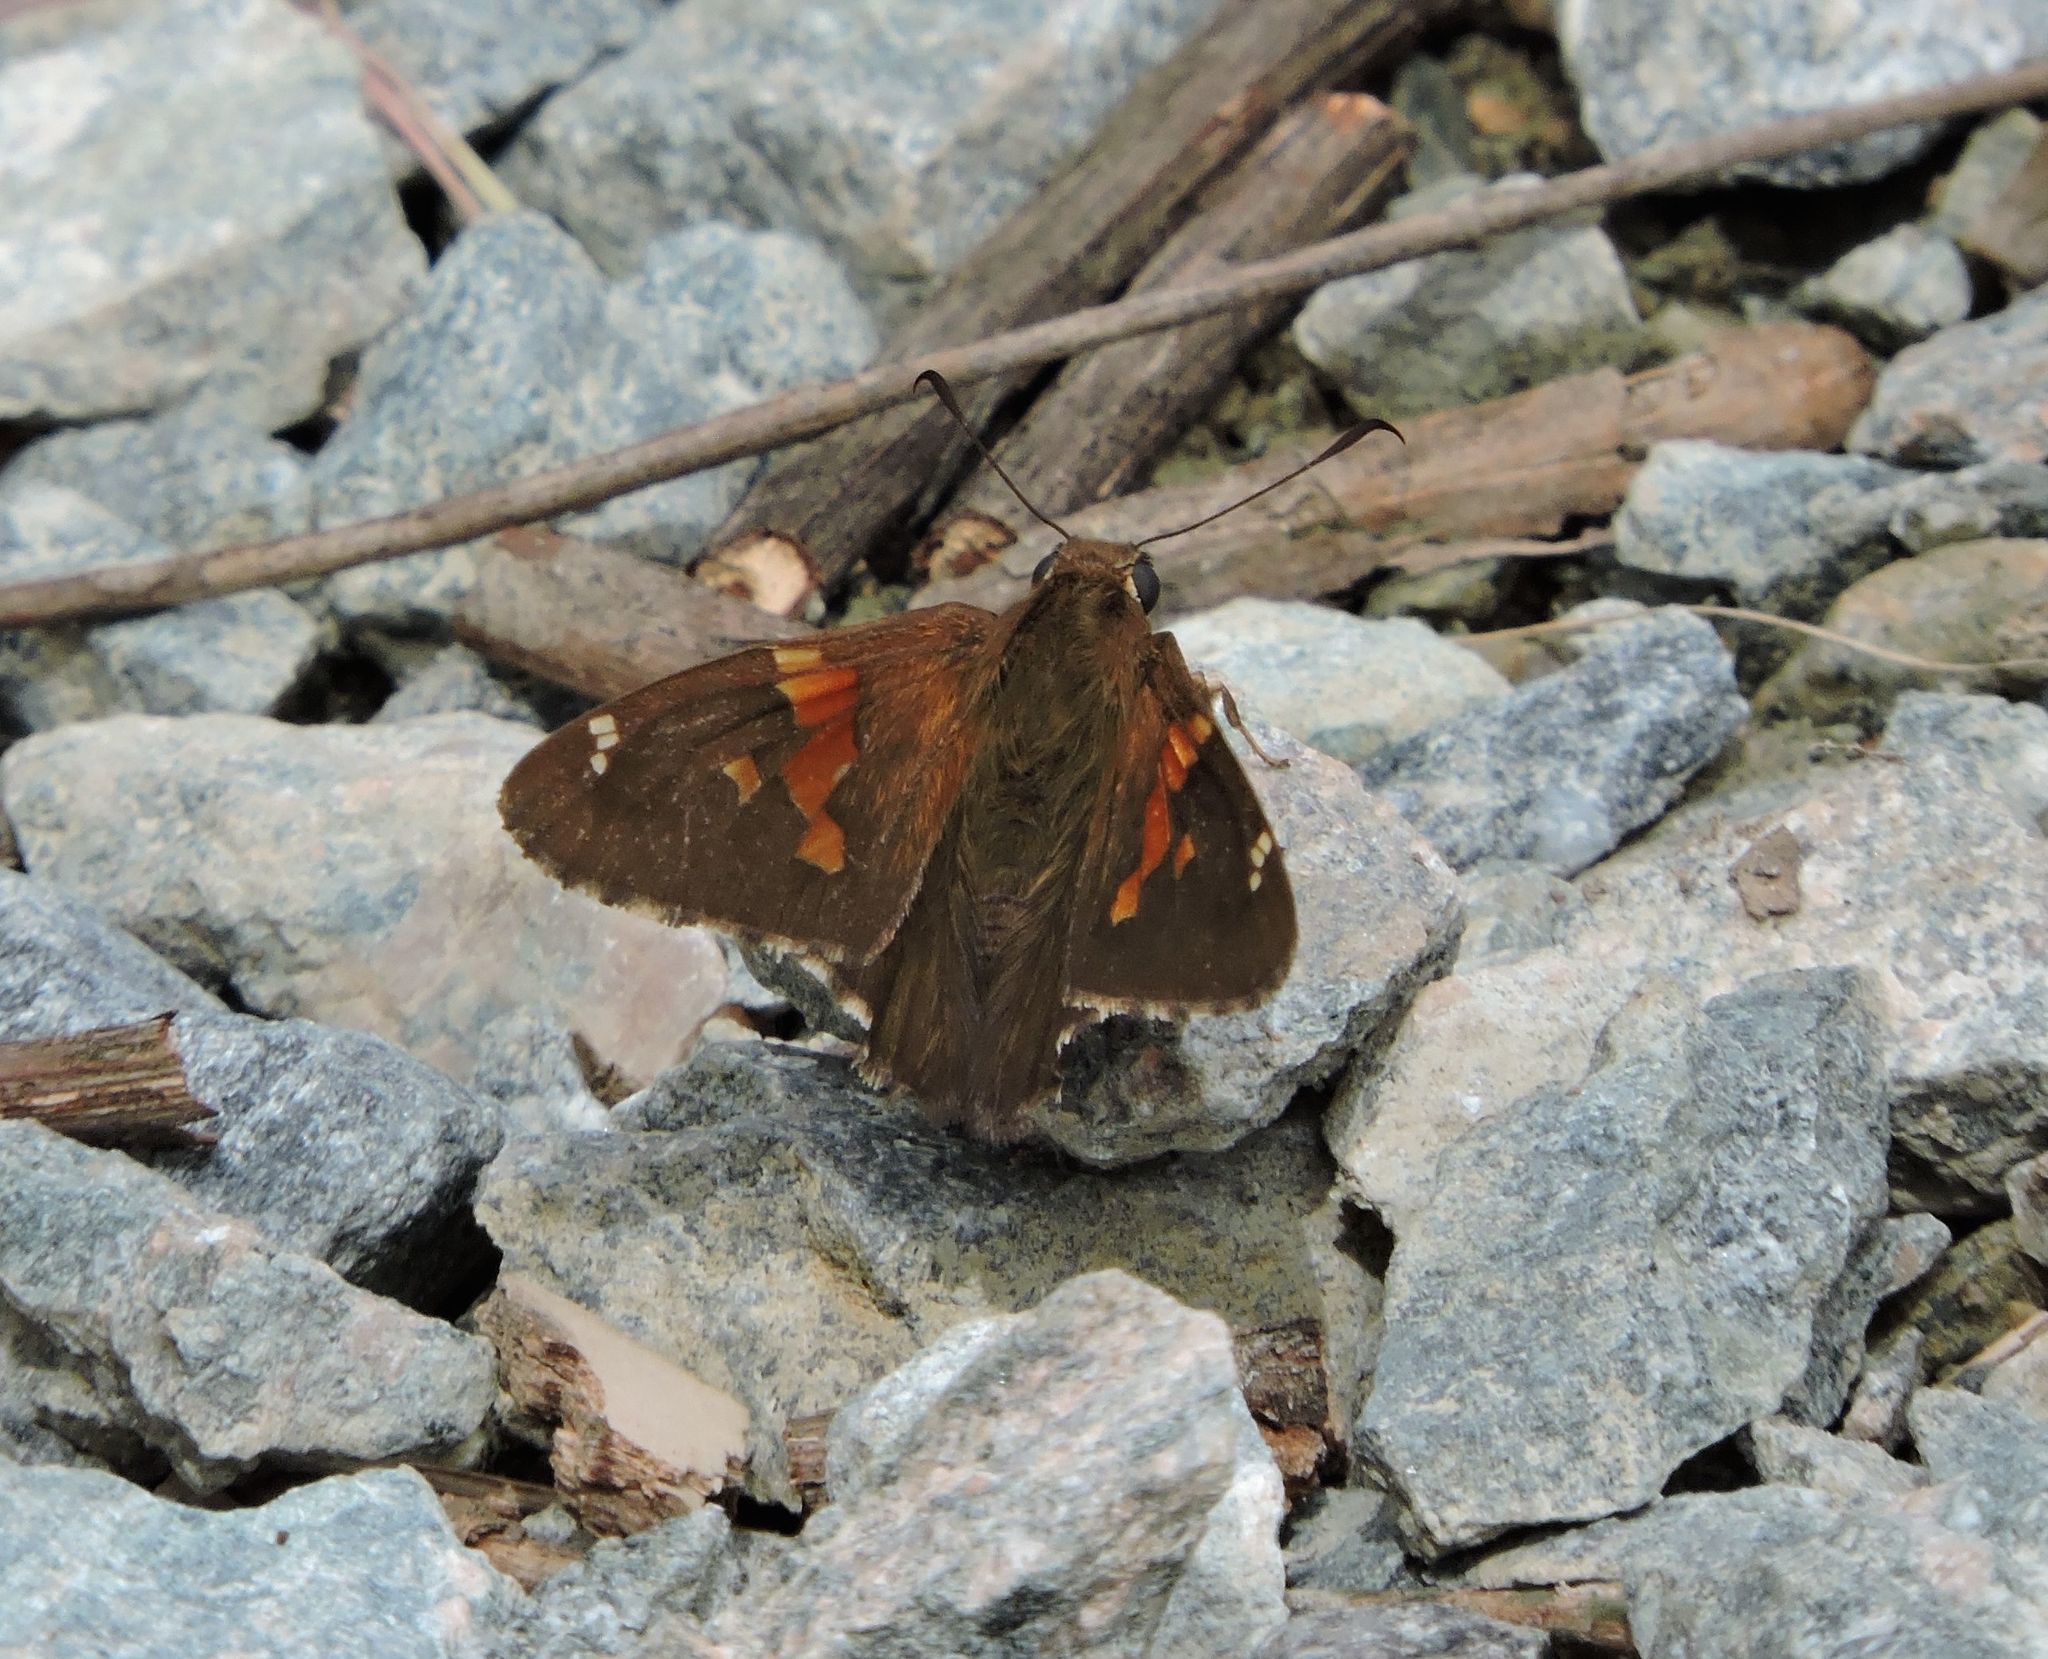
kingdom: Animalia
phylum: Arthropoda
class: Insecta
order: Lepidoptera
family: Hesperiidae
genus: Epargyreus
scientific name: Epargyreus clarus
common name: Silver-spotted skipper
